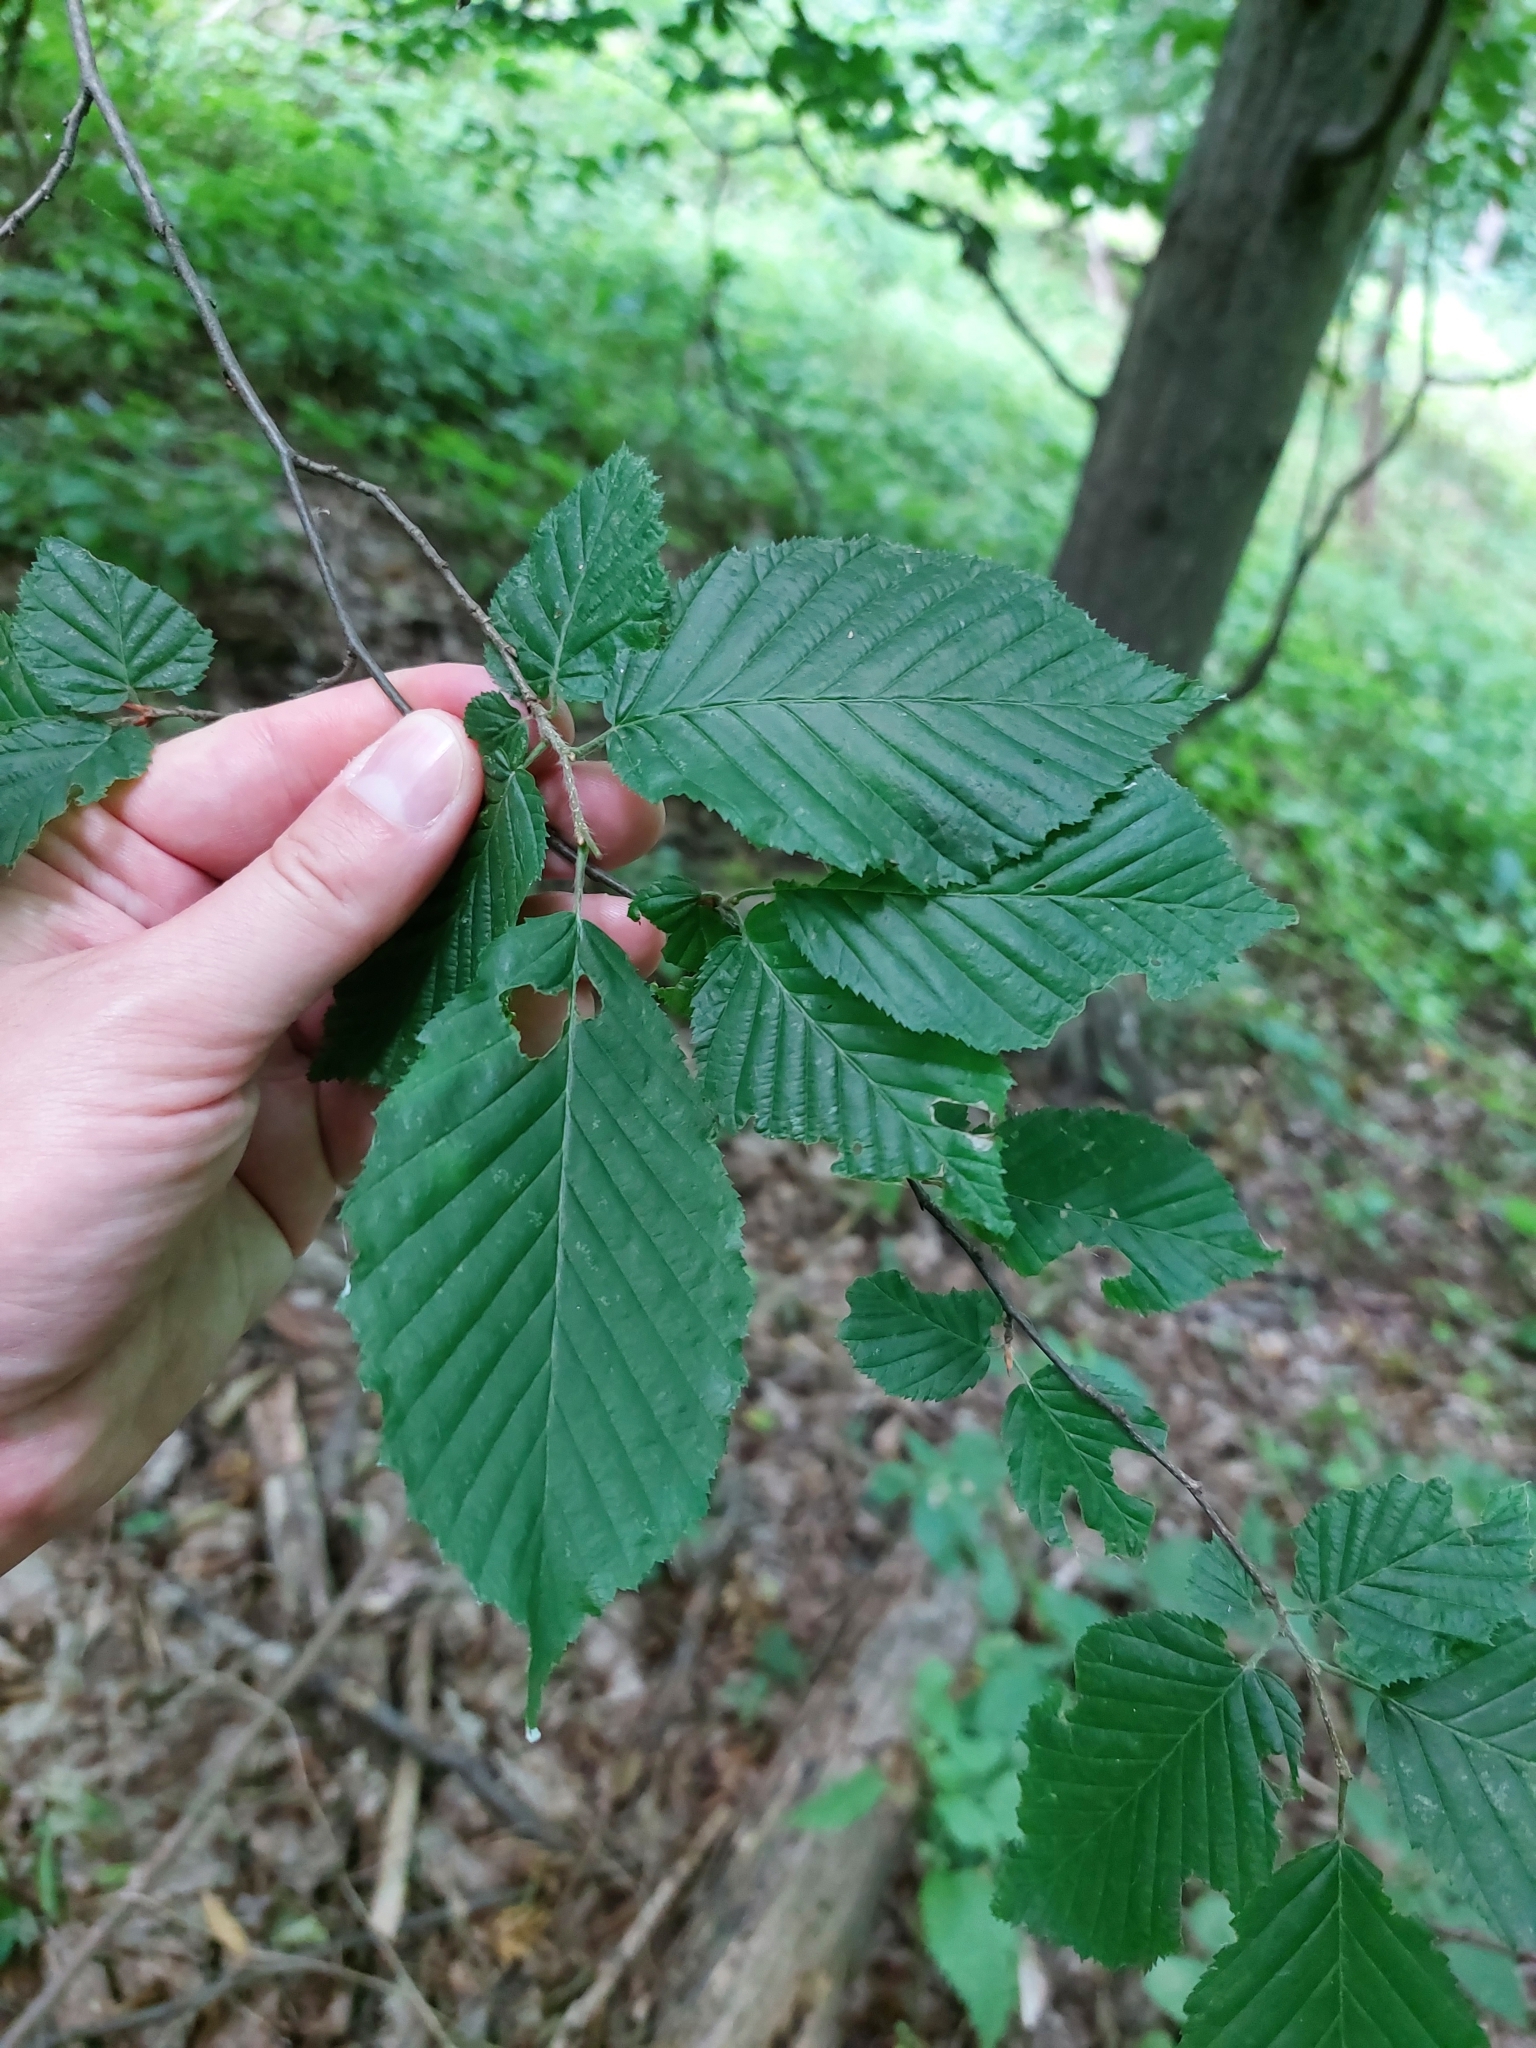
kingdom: Plantae
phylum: Tracheophyta
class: Magnoliopsida
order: Fagales
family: Betulaceae
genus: Carpinus
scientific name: Carpinus betulus
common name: Hornbeam
